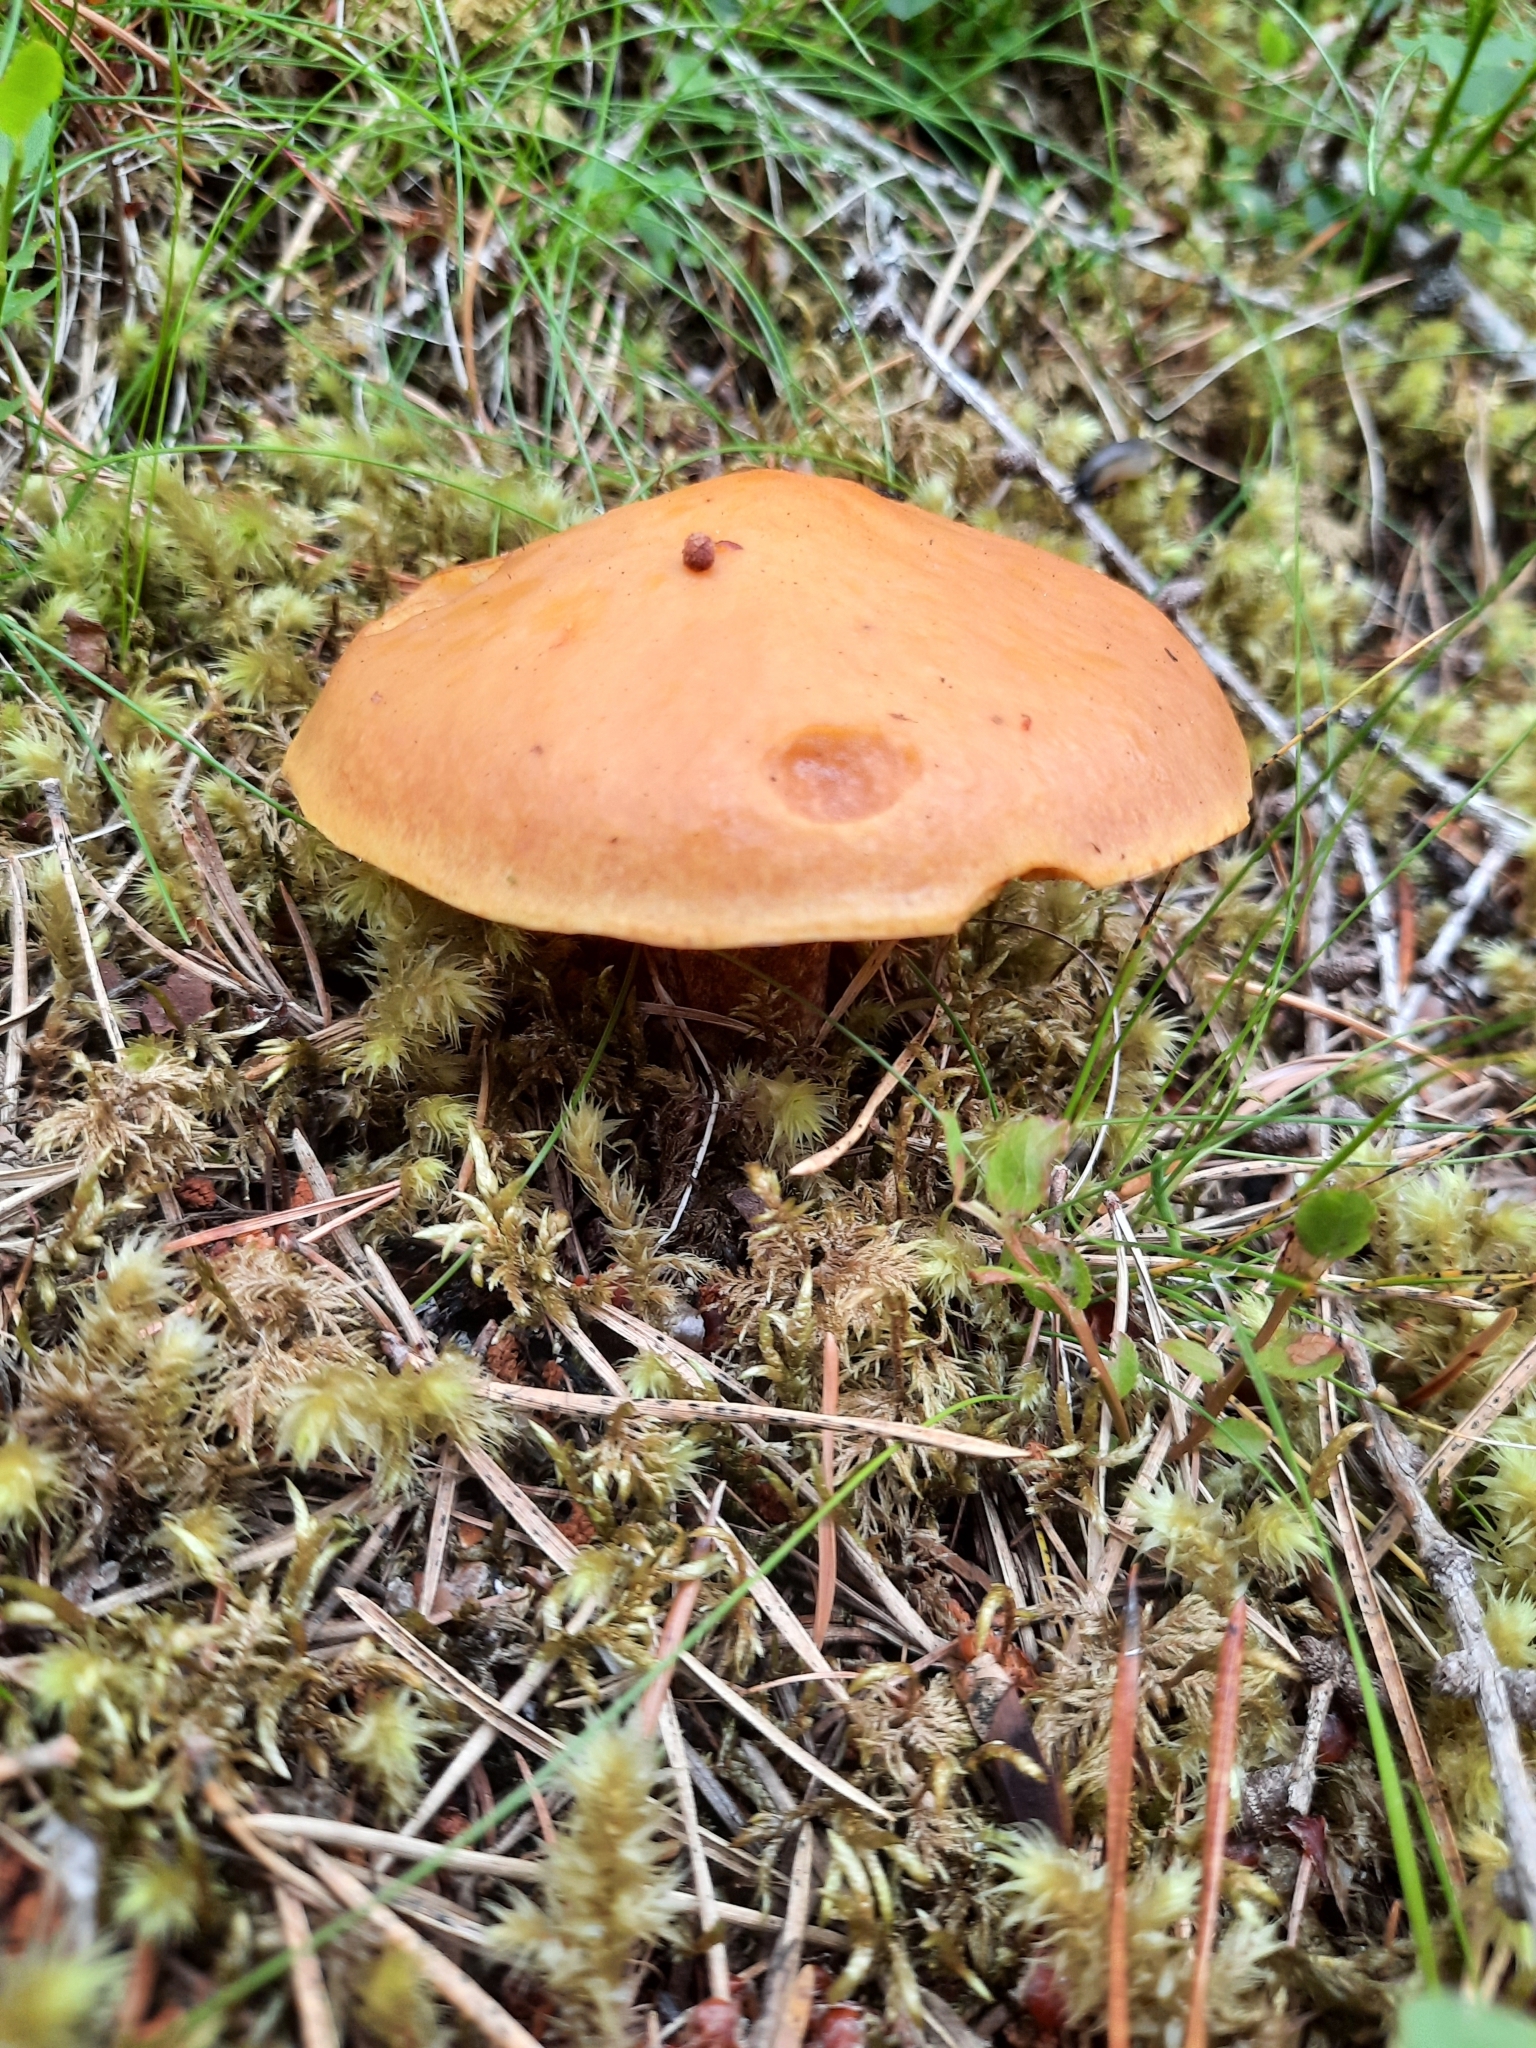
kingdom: Fungi
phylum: Basidiomycota
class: Agaricomycetes
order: Boletales
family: Suillaceae
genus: Suillus
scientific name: Suillus grevillei
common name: Larch bolete
